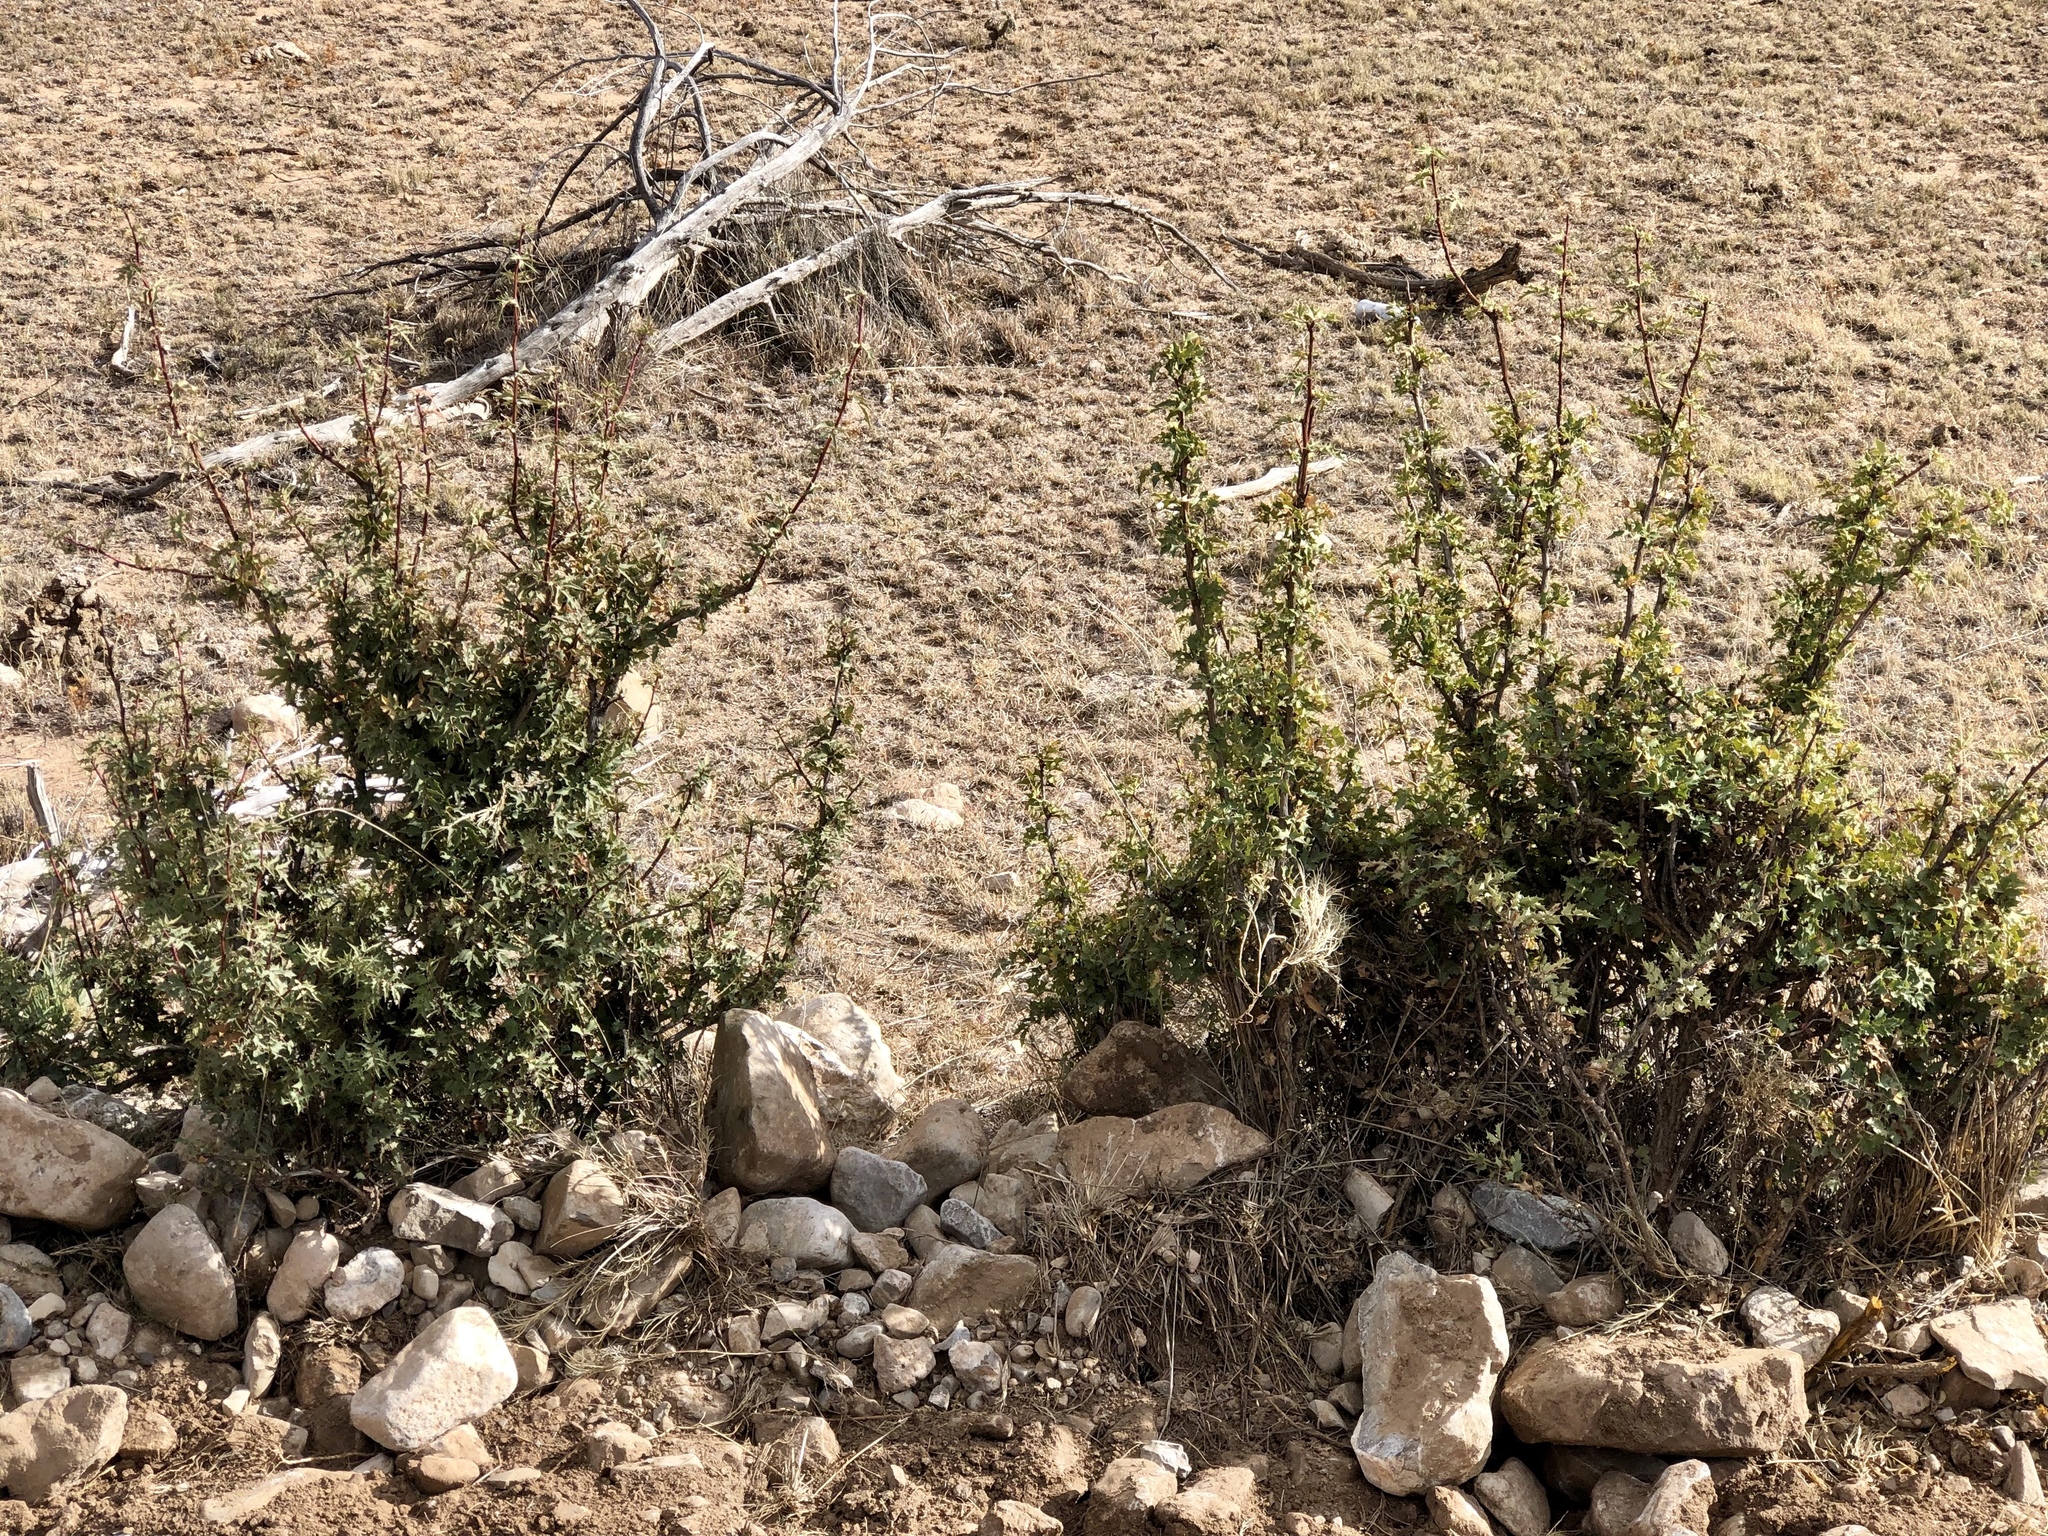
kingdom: Plantae
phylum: Tracheophyta
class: Pinopsida
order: Pinales
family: Cupressaceae
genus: Juniperus
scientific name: Juniperus monosperma
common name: One-seed juniper
